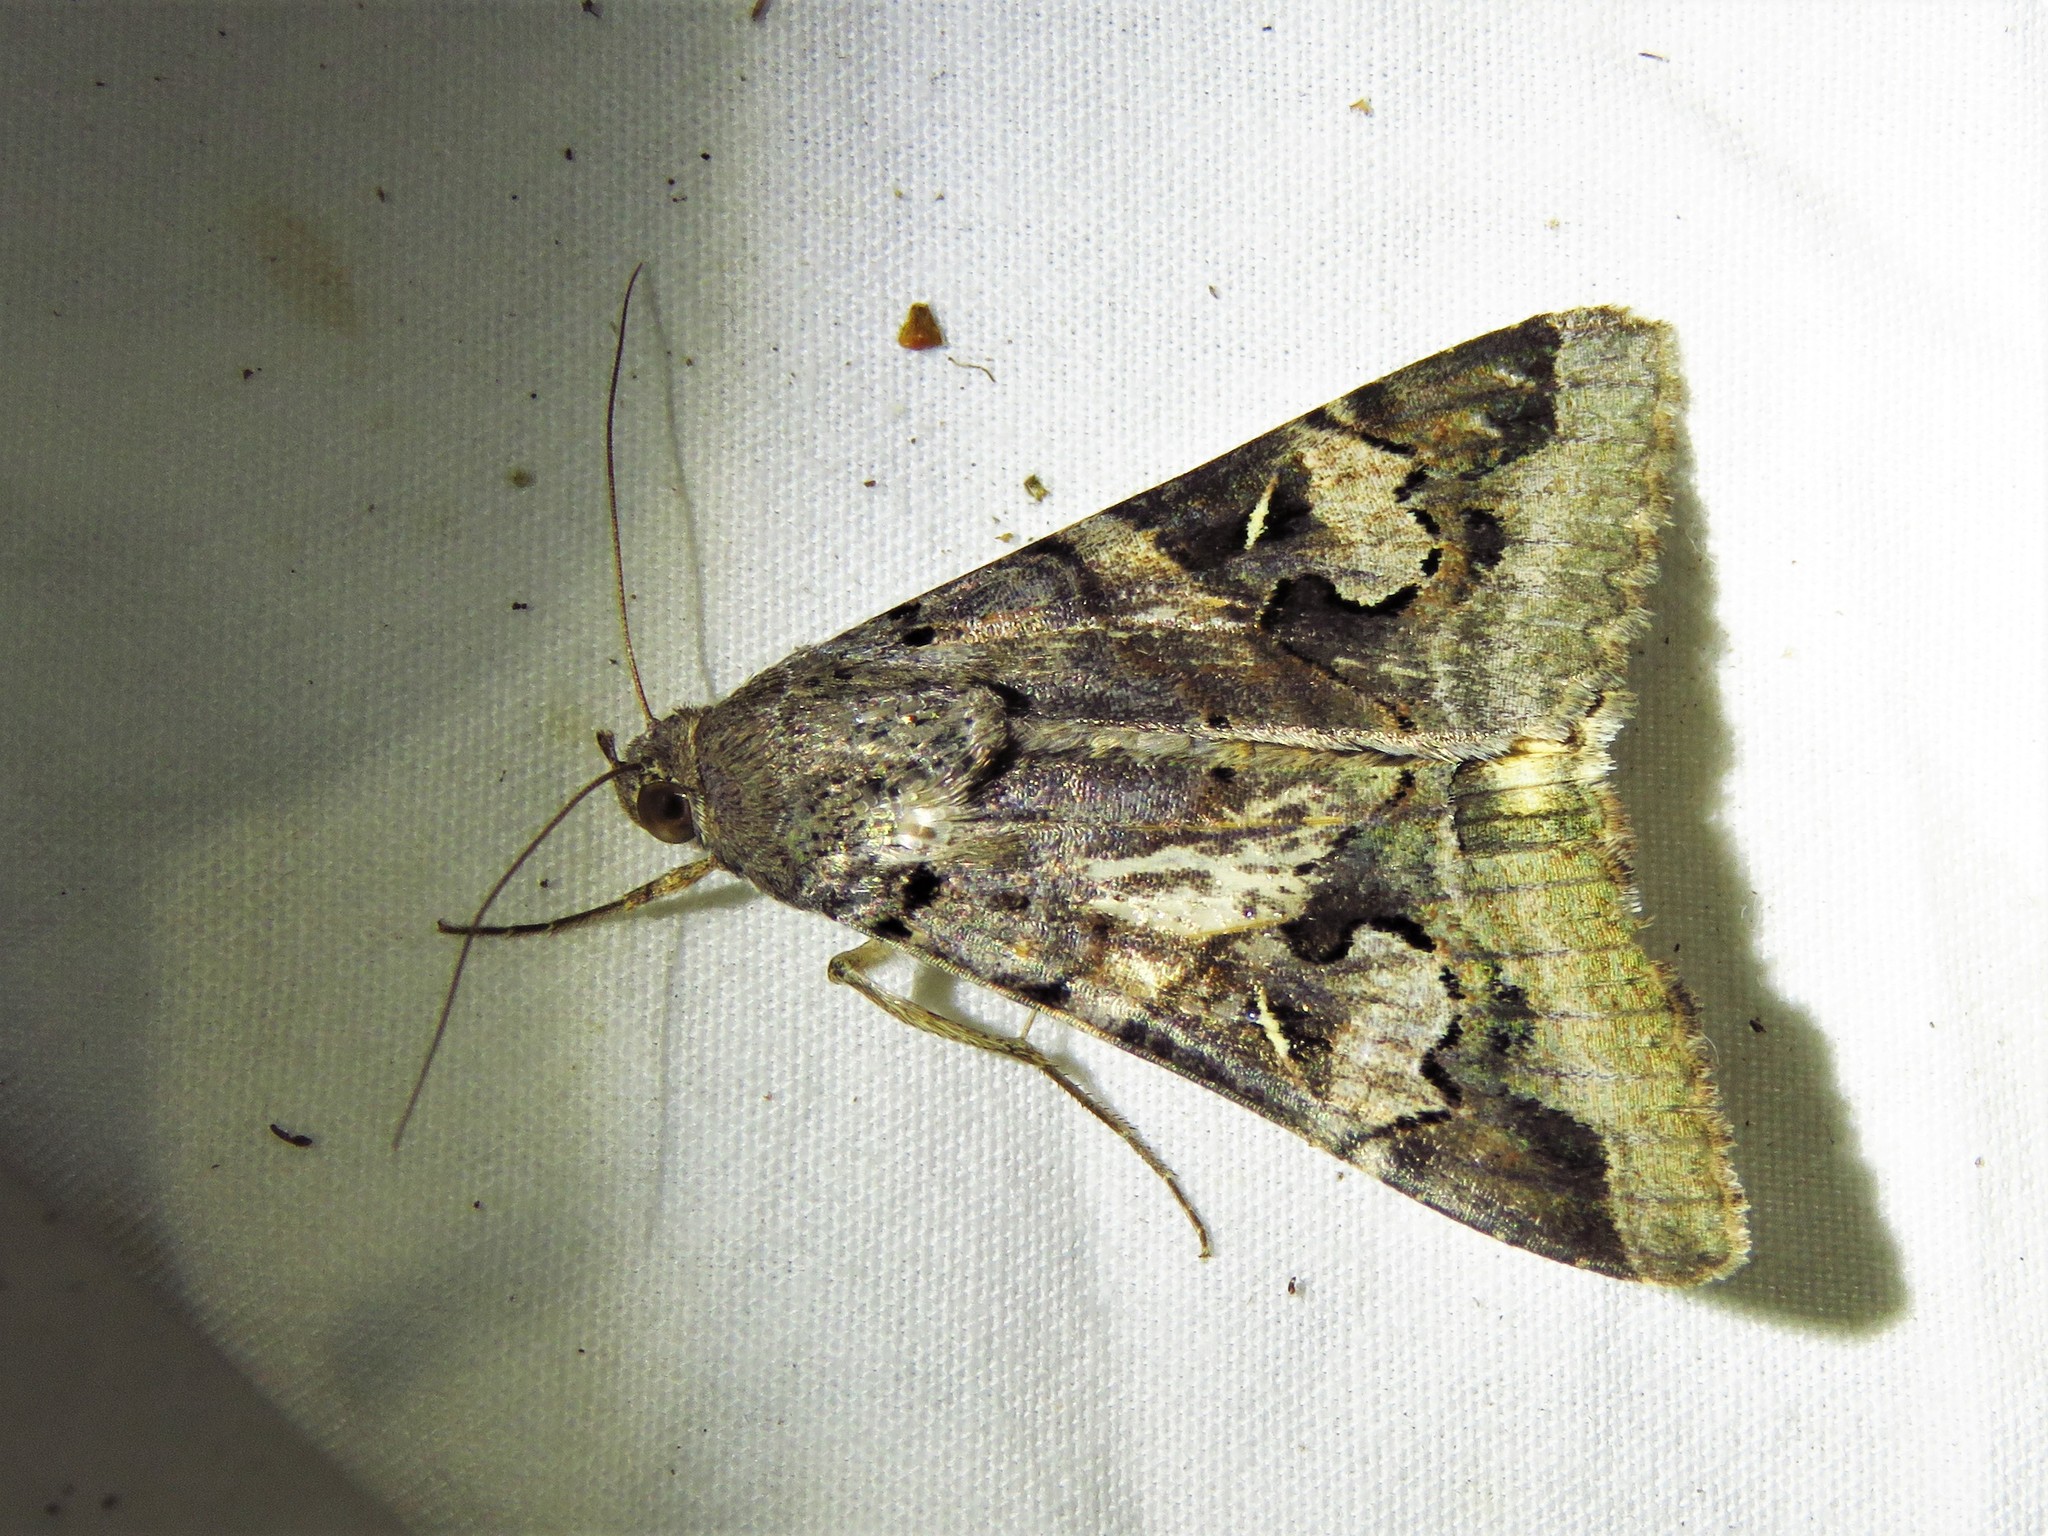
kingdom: Animalia
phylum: Arthropoda
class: Insecta
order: Lepidoptera
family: Erebidae
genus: Melipotis
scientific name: Melipotis indomita
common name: Moth
